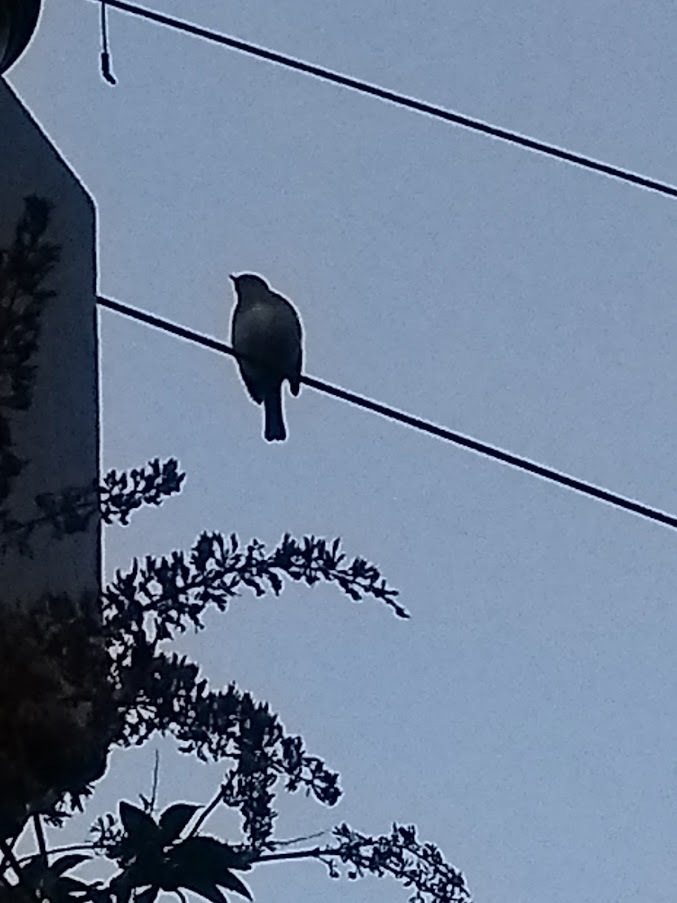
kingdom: Animalia
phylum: Chordata
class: Aves
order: Passeriformes
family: Muscicapidae
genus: Erithacus
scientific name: Erithacus rubecula
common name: European robin
